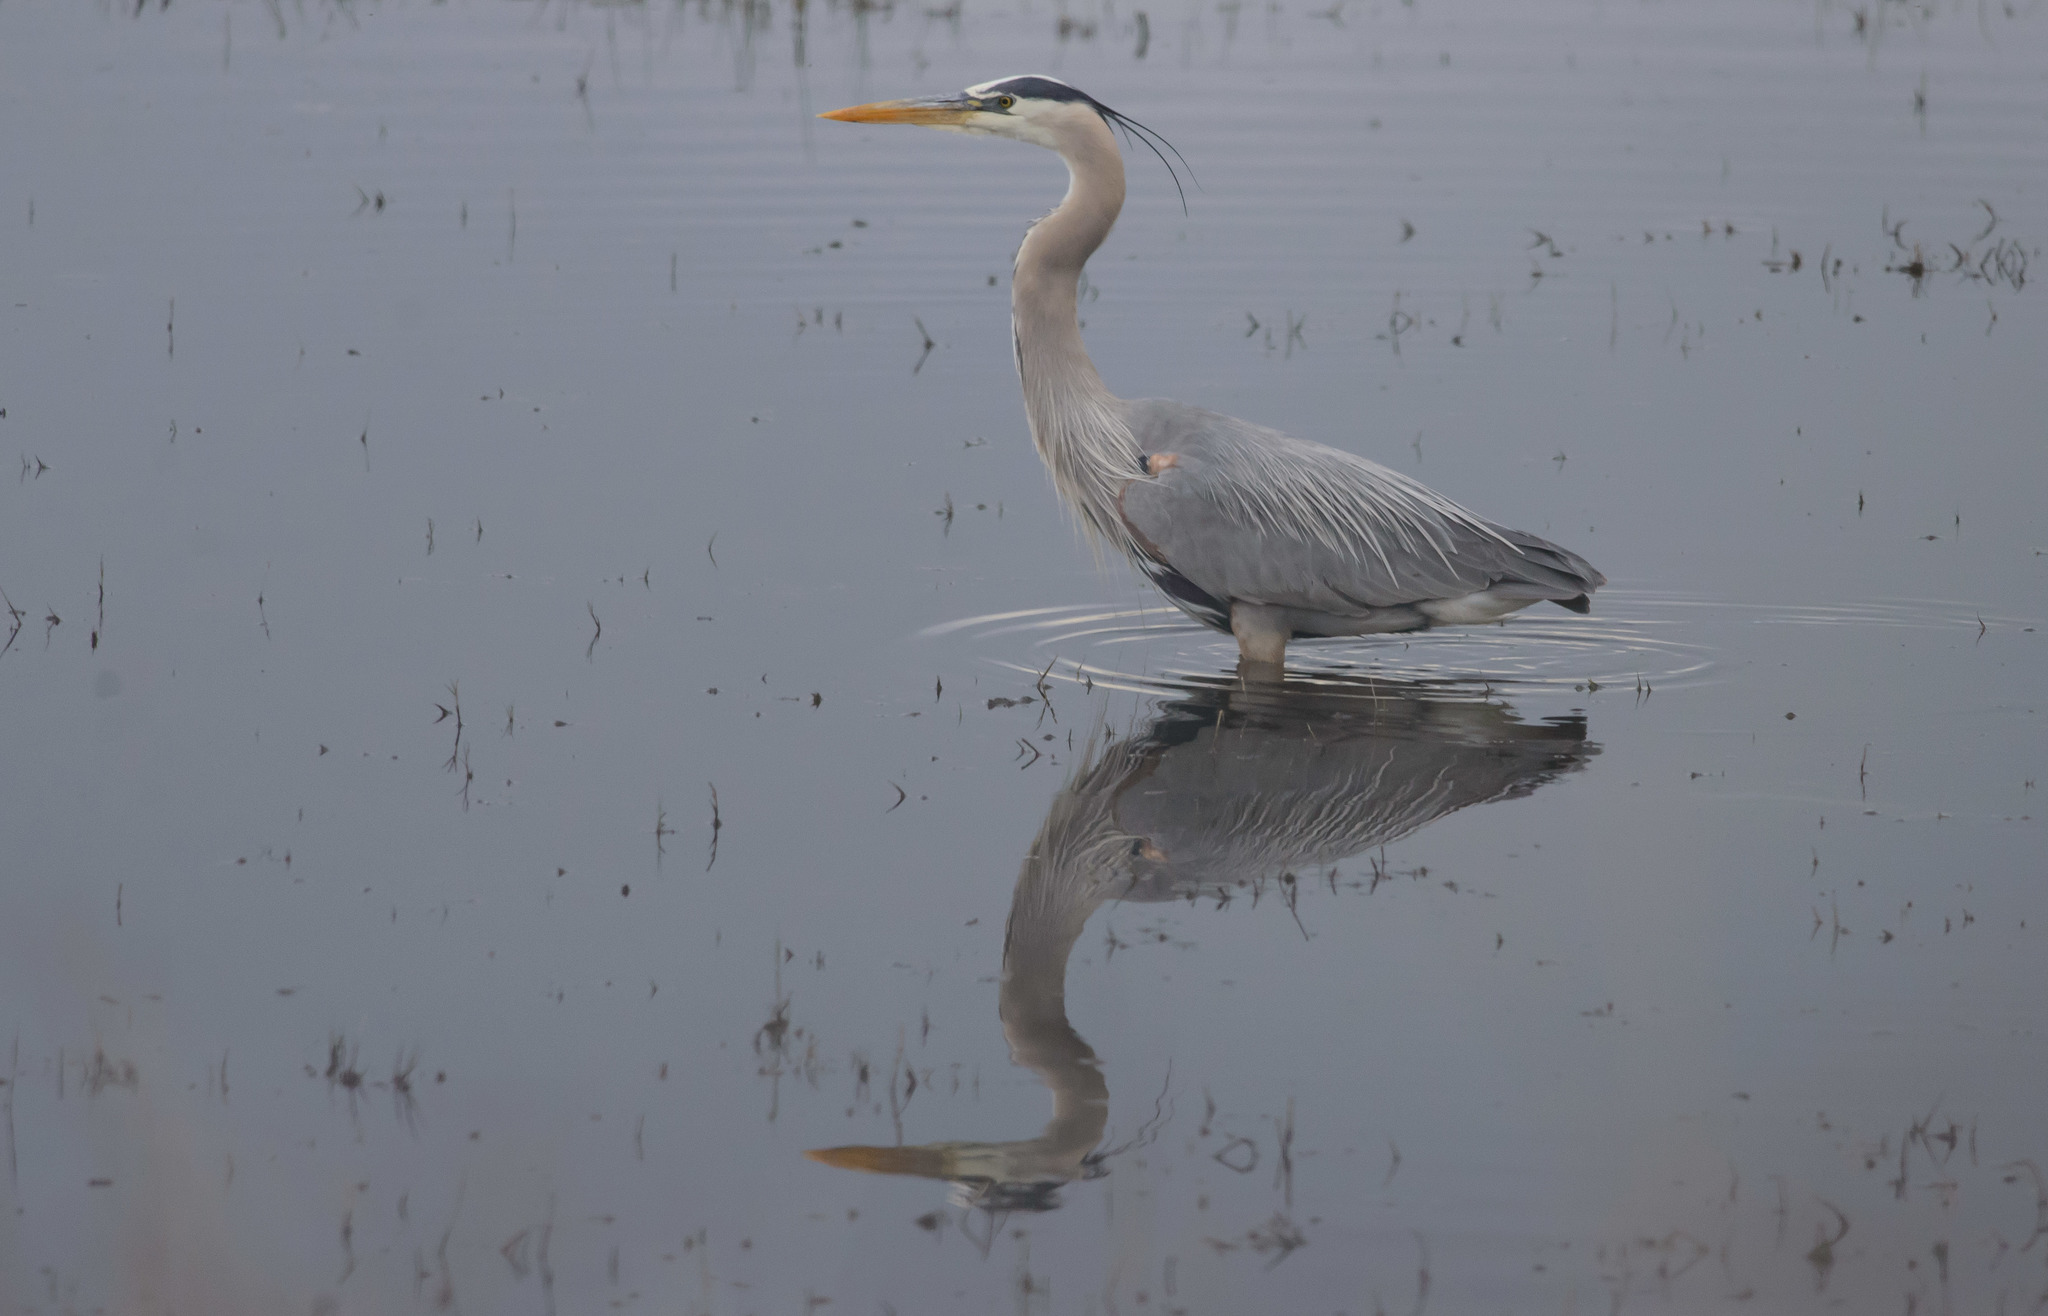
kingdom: Animalia
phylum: Chordata
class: Aves
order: Pelecaniformes
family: Ardeidae
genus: Ardea
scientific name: Ardea herodias
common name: Great blue heron
